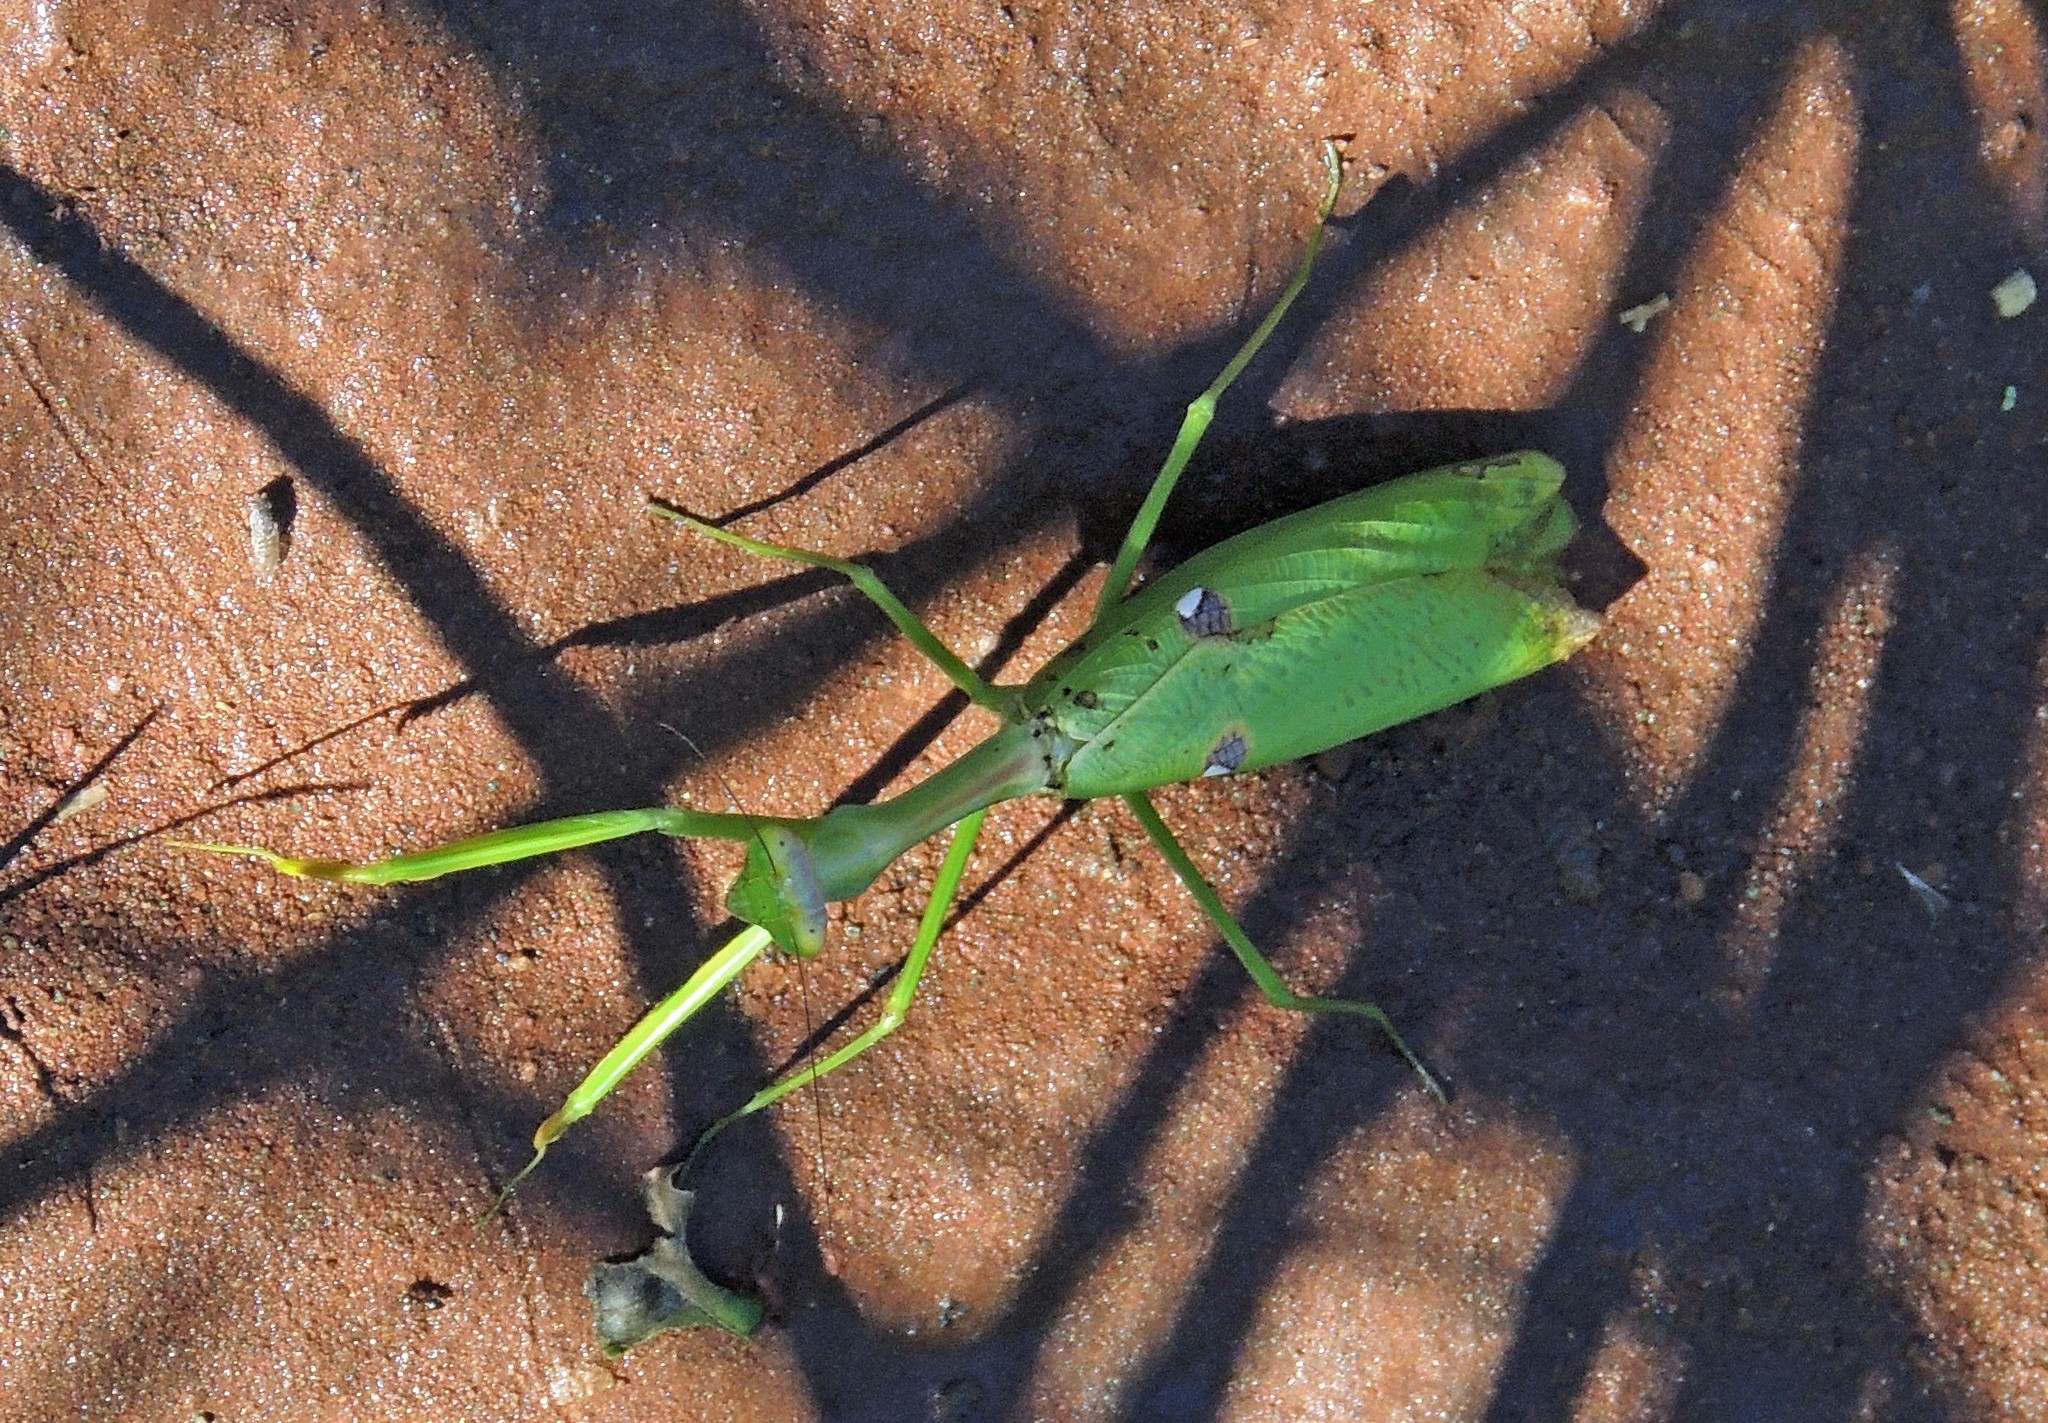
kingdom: Animalia
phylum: Arthropoda
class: Insecta
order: Mantodea
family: Mantidae
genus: Stagmatoptera
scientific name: Stagmatoptera praecaria
